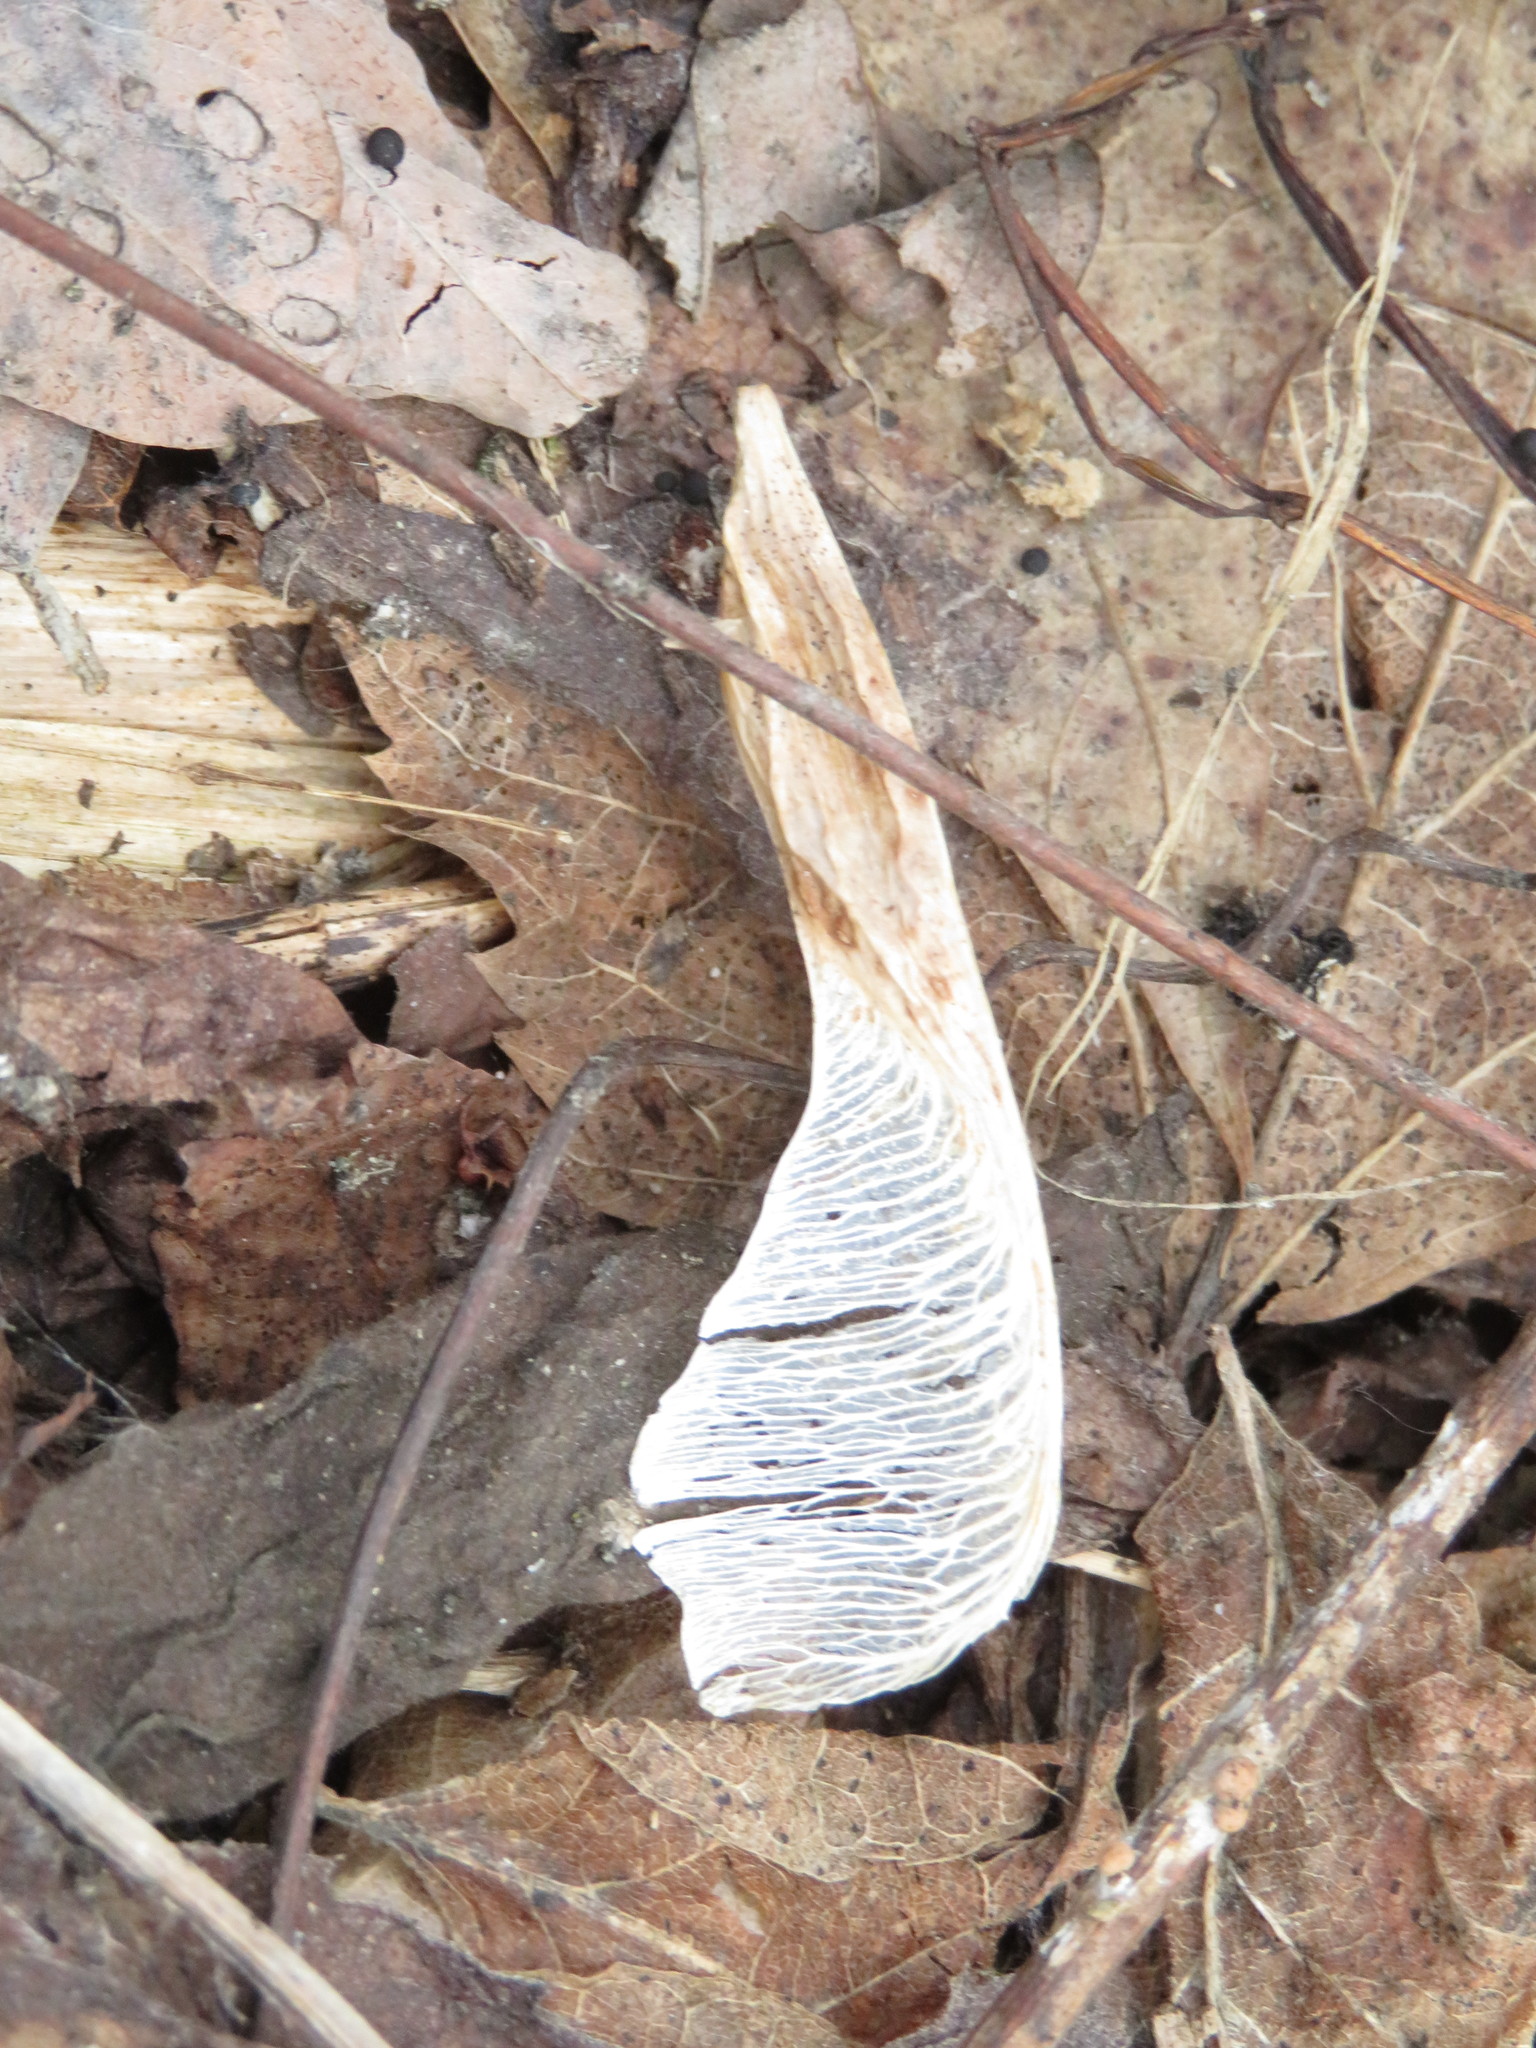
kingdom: Plantae
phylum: Tracheophyta
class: Magnoliopsida
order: Sapindales
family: Sapindaceae
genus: Acer
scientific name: Acer negundo
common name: Ashleaf maple
